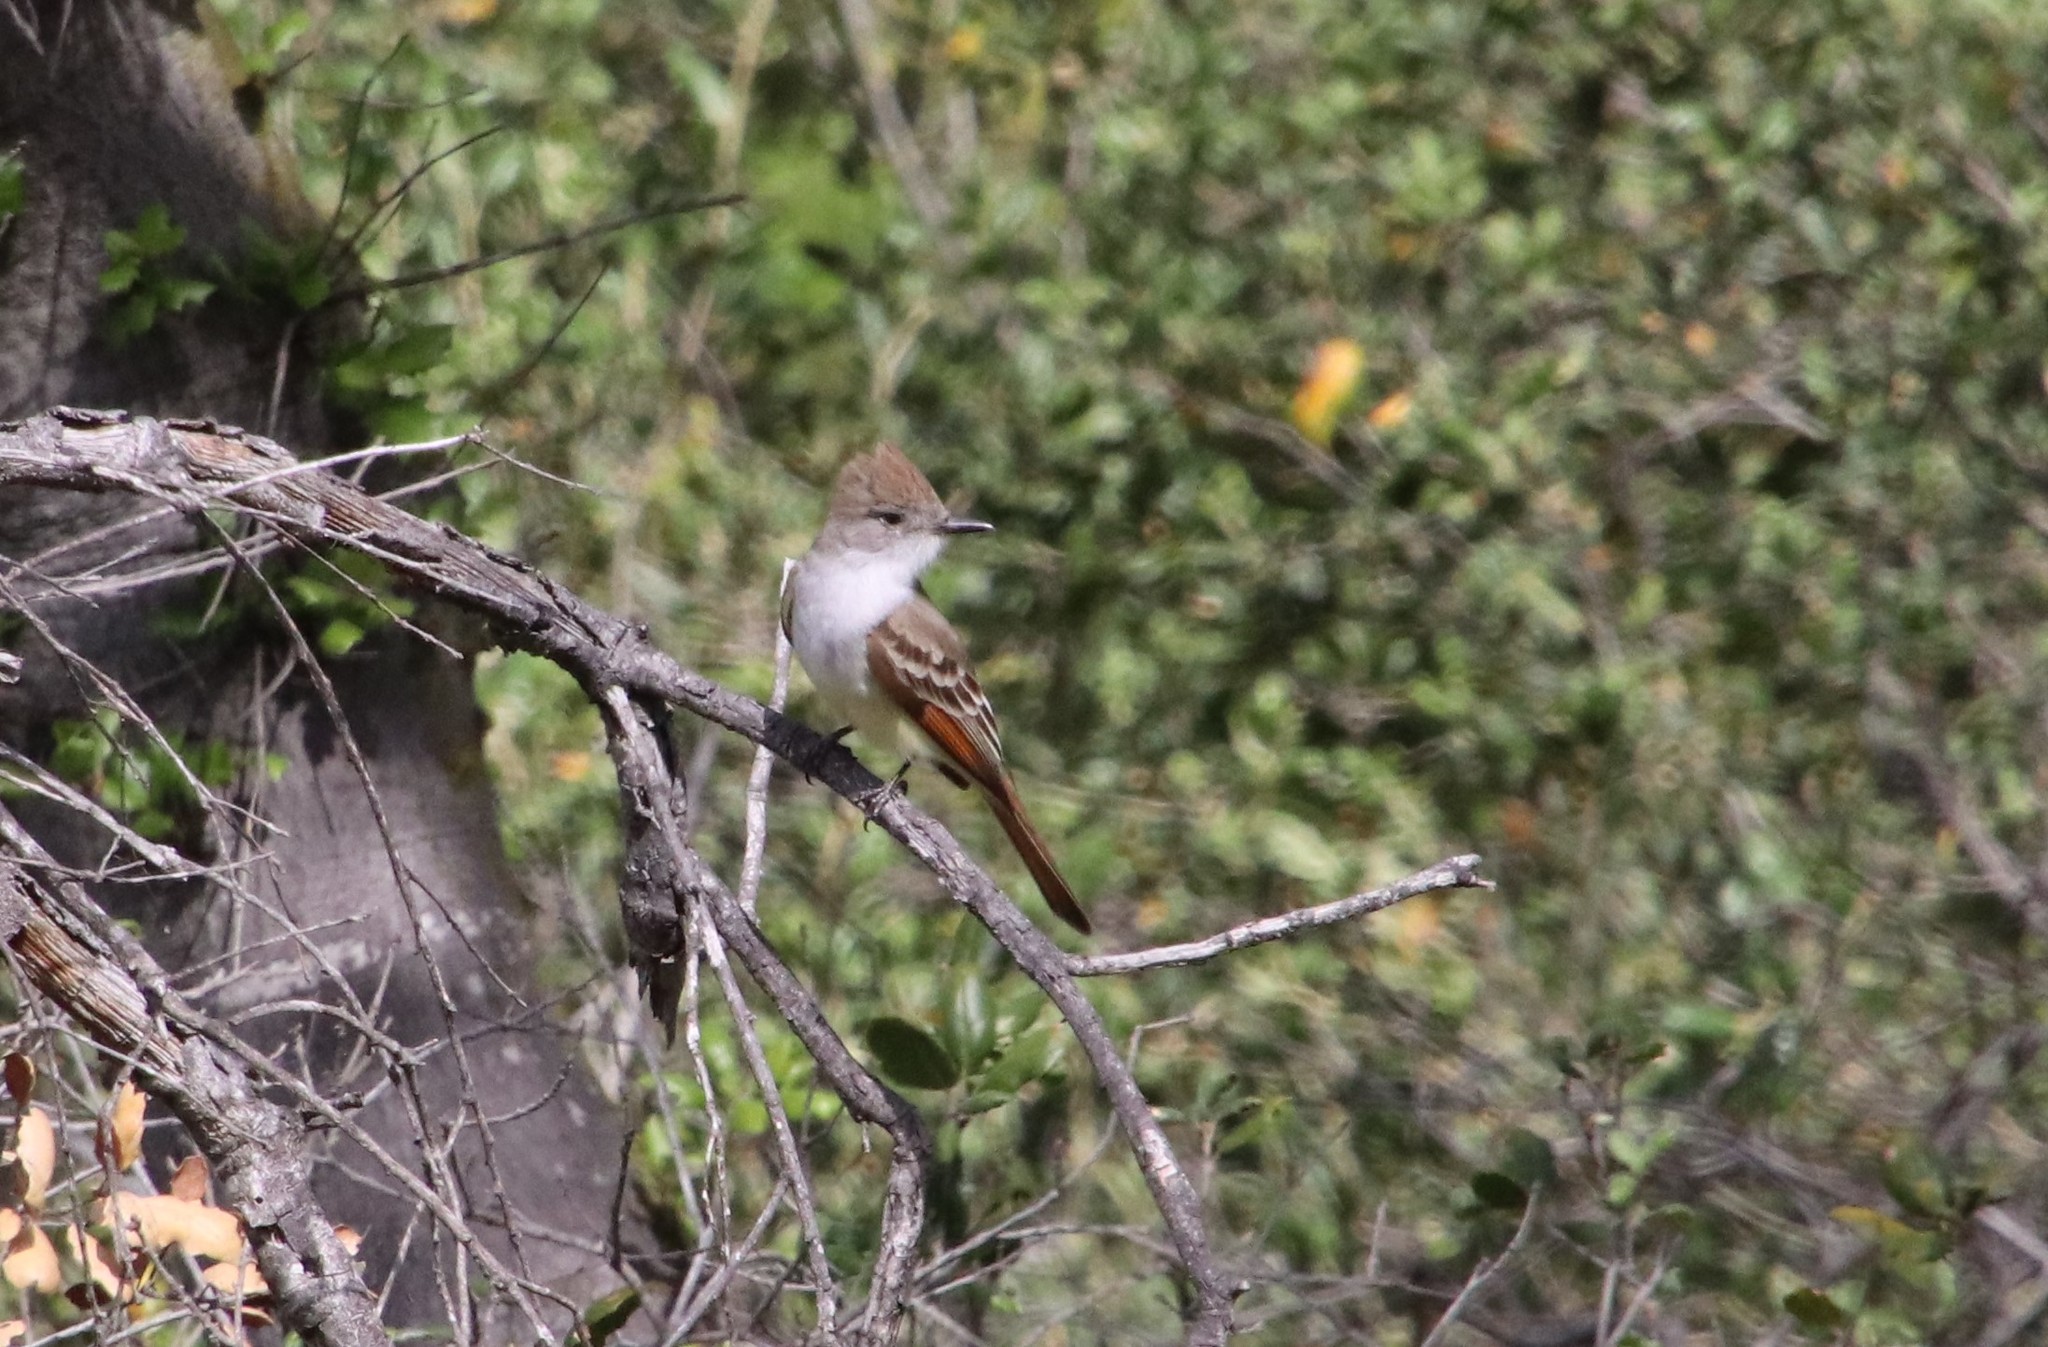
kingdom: Animalia
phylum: Chordata
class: Aves
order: Passeriformes
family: Tyrannidae
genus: Myiarchus
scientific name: Myiarchus cinerascens
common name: Ash-throated flycatcher
